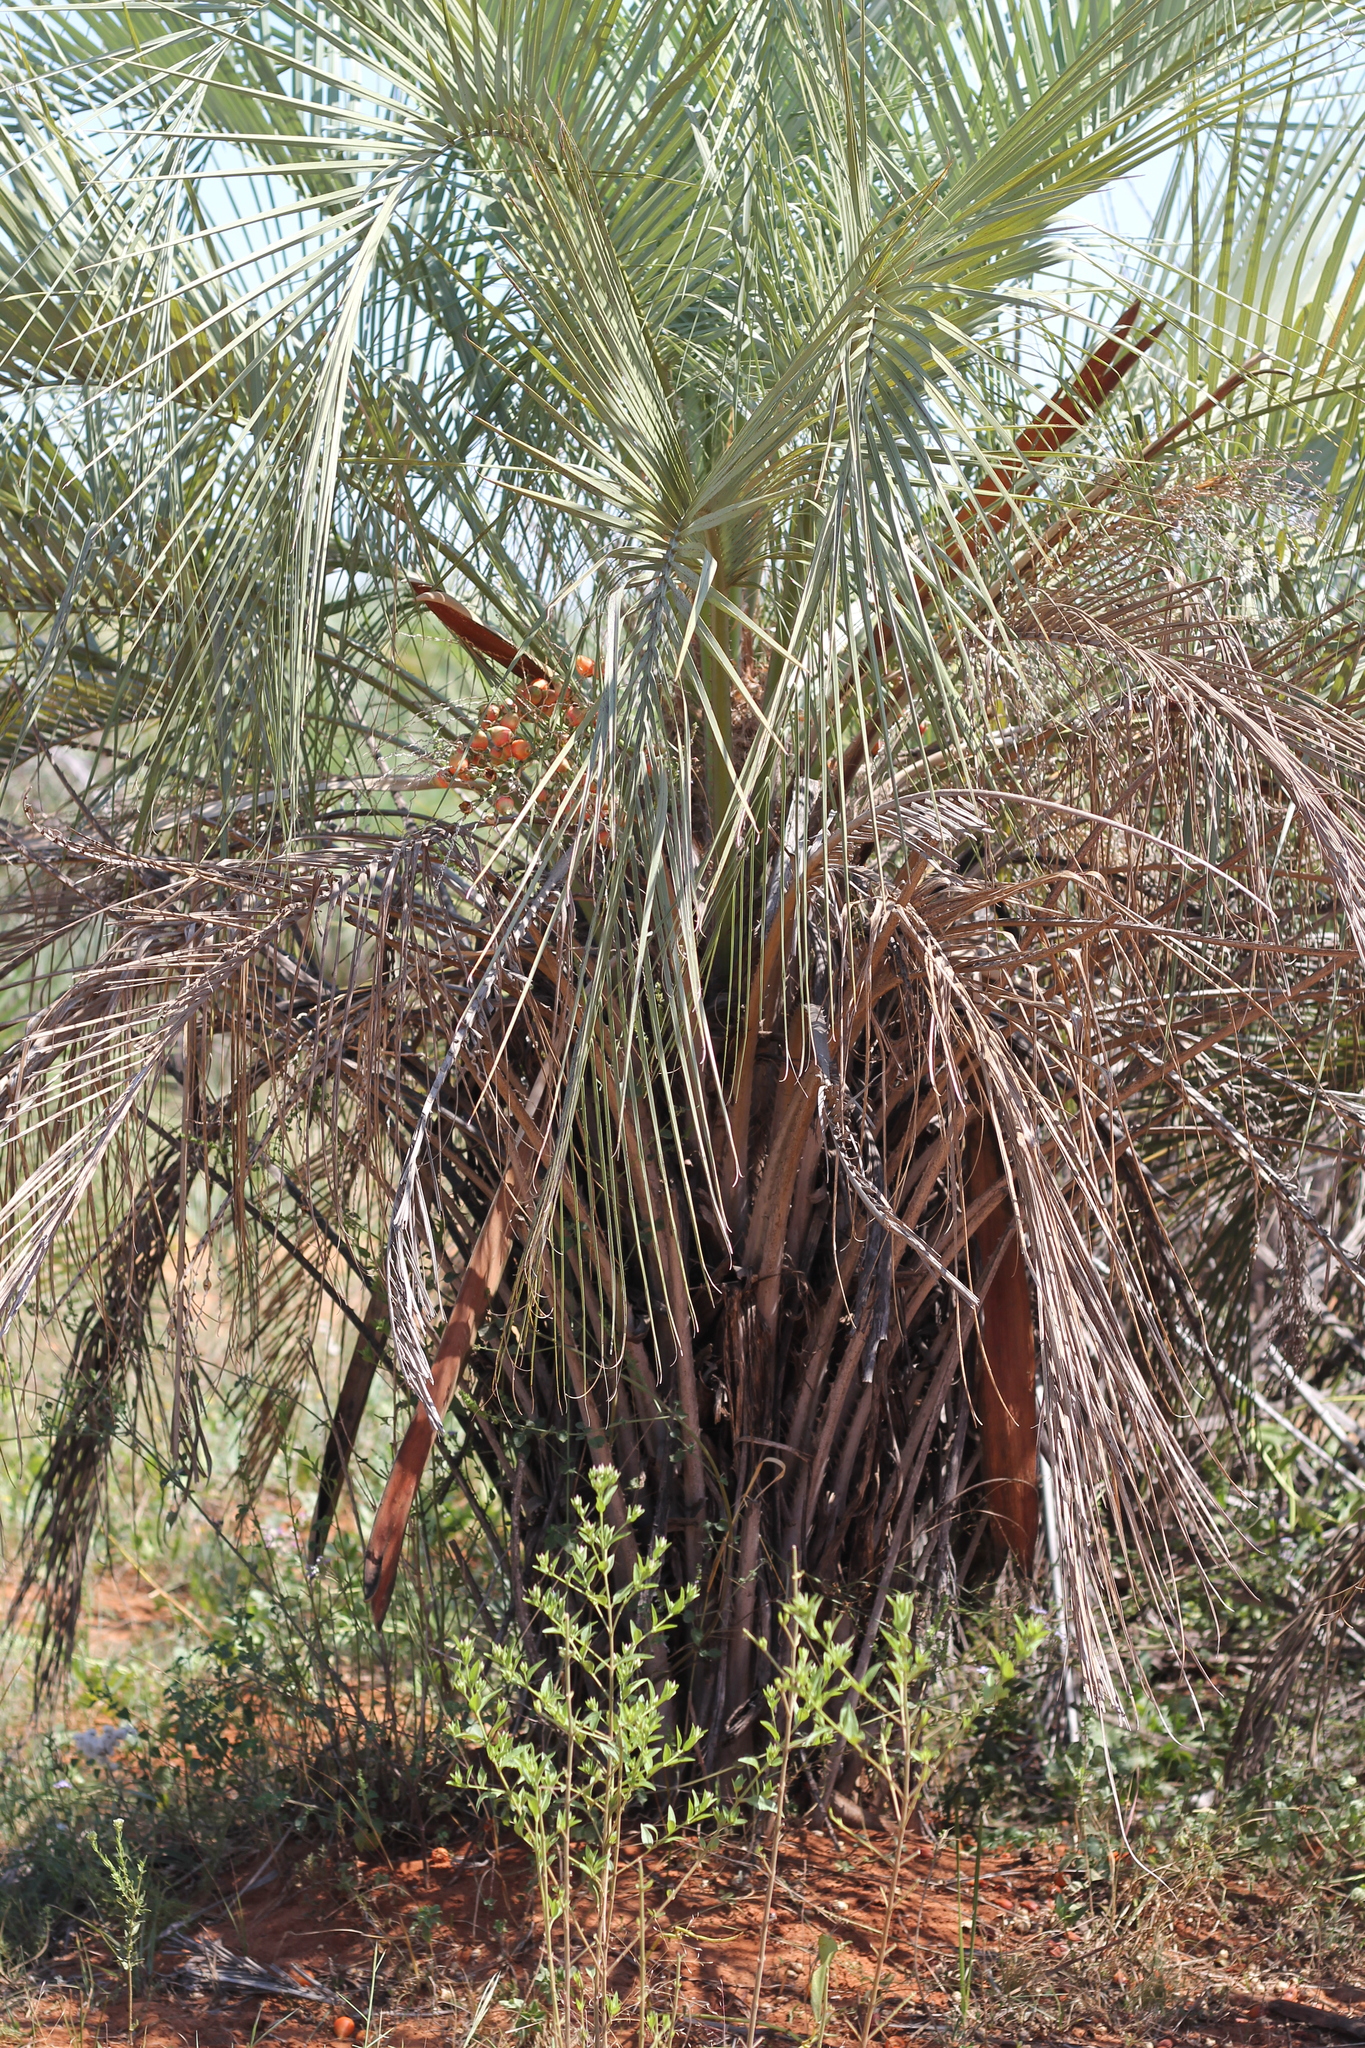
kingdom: Plantae
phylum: Tracheophyta
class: Liliopsida
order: Arecales
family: Arecaceae
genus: Butia
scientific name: Butia noblickii
